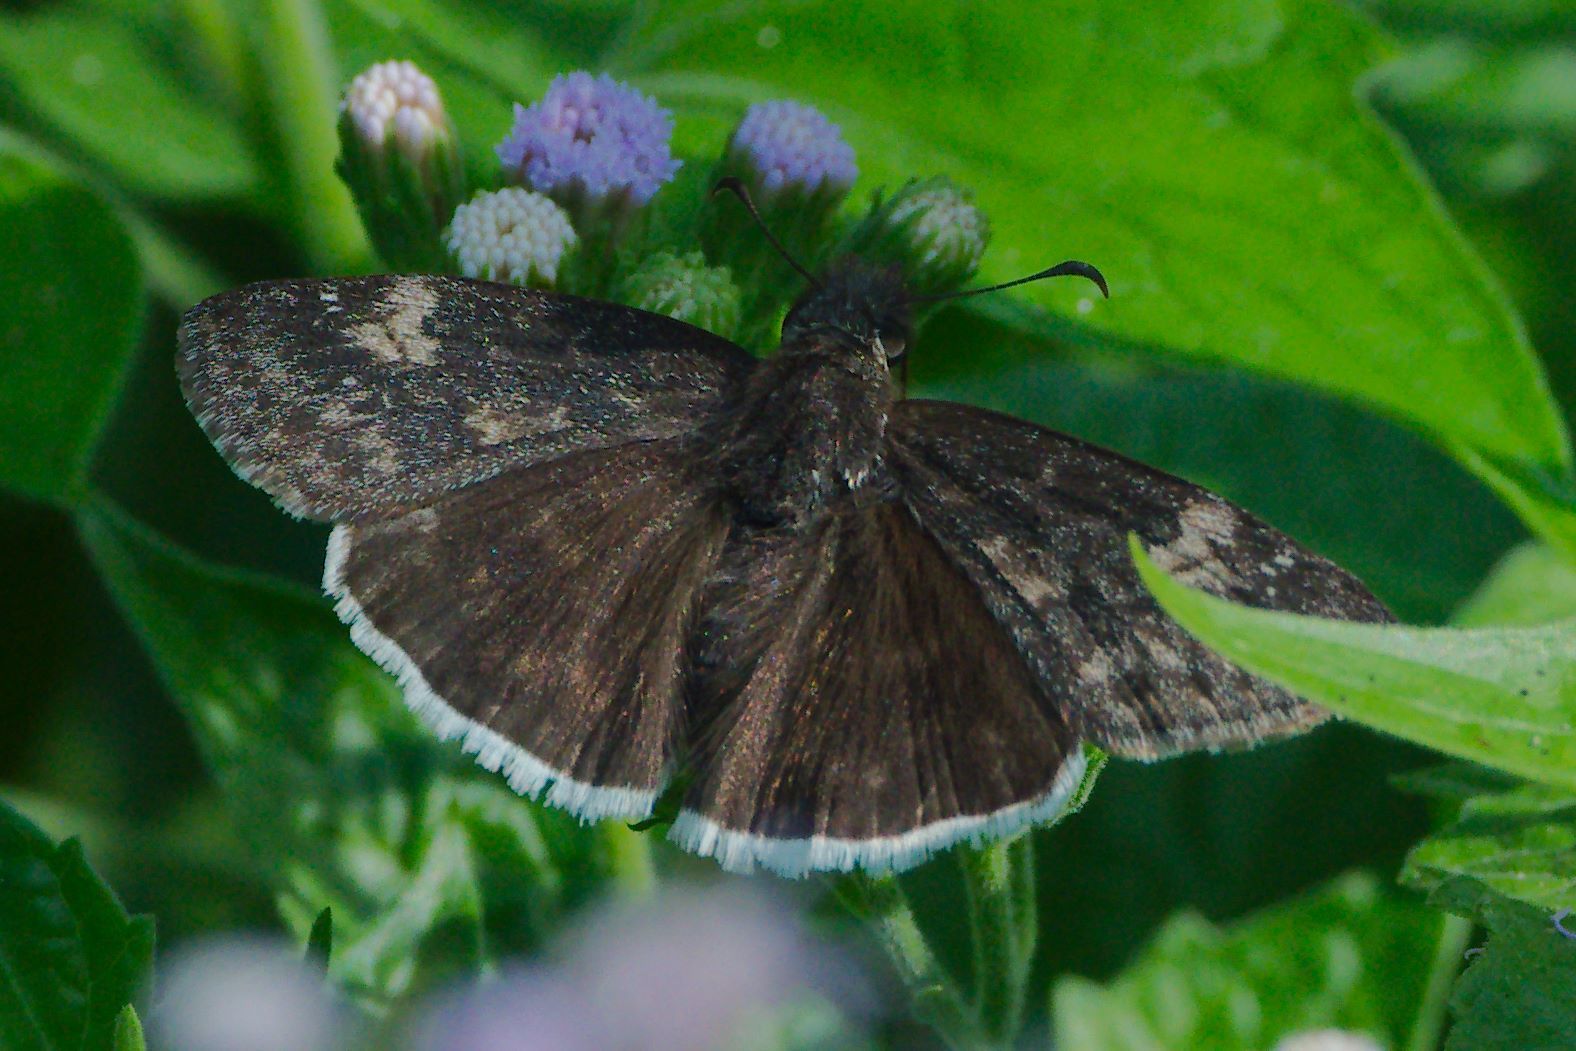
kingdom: Animalia
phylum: Arthropoda
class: Insecta
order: Lepidoptera
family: Hesperiidae
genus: Erynnis
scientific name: Erynnis funeralis
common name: Funereal duskywing
